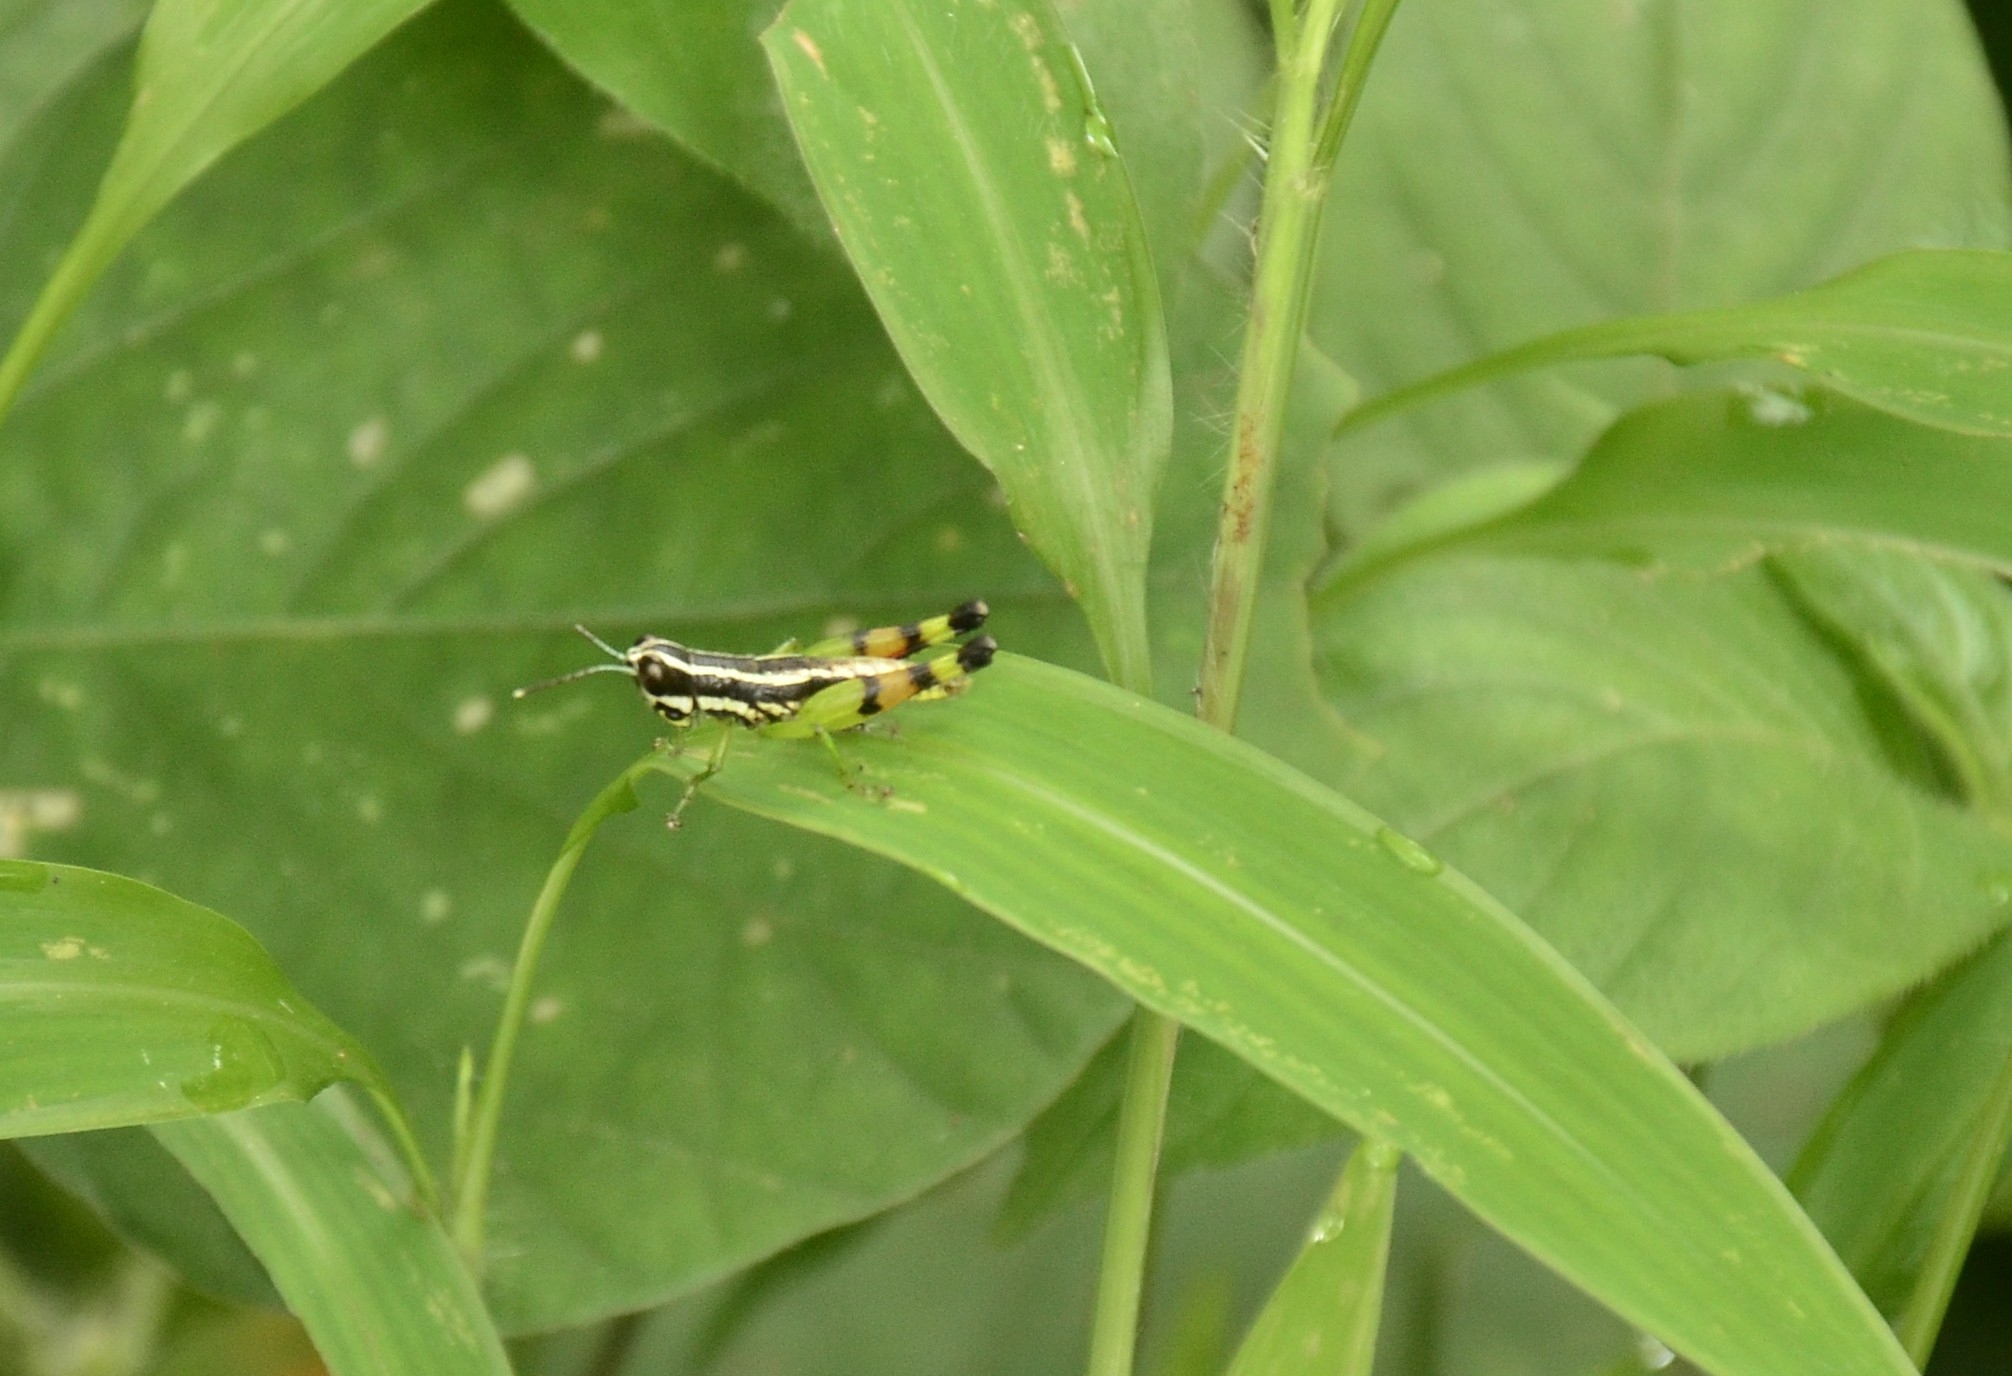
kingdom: Animalia
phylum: Arthropoda
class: Insecta
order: Orthoptera
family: Acrididae
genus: Chitaura
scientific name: Chitaura indica
